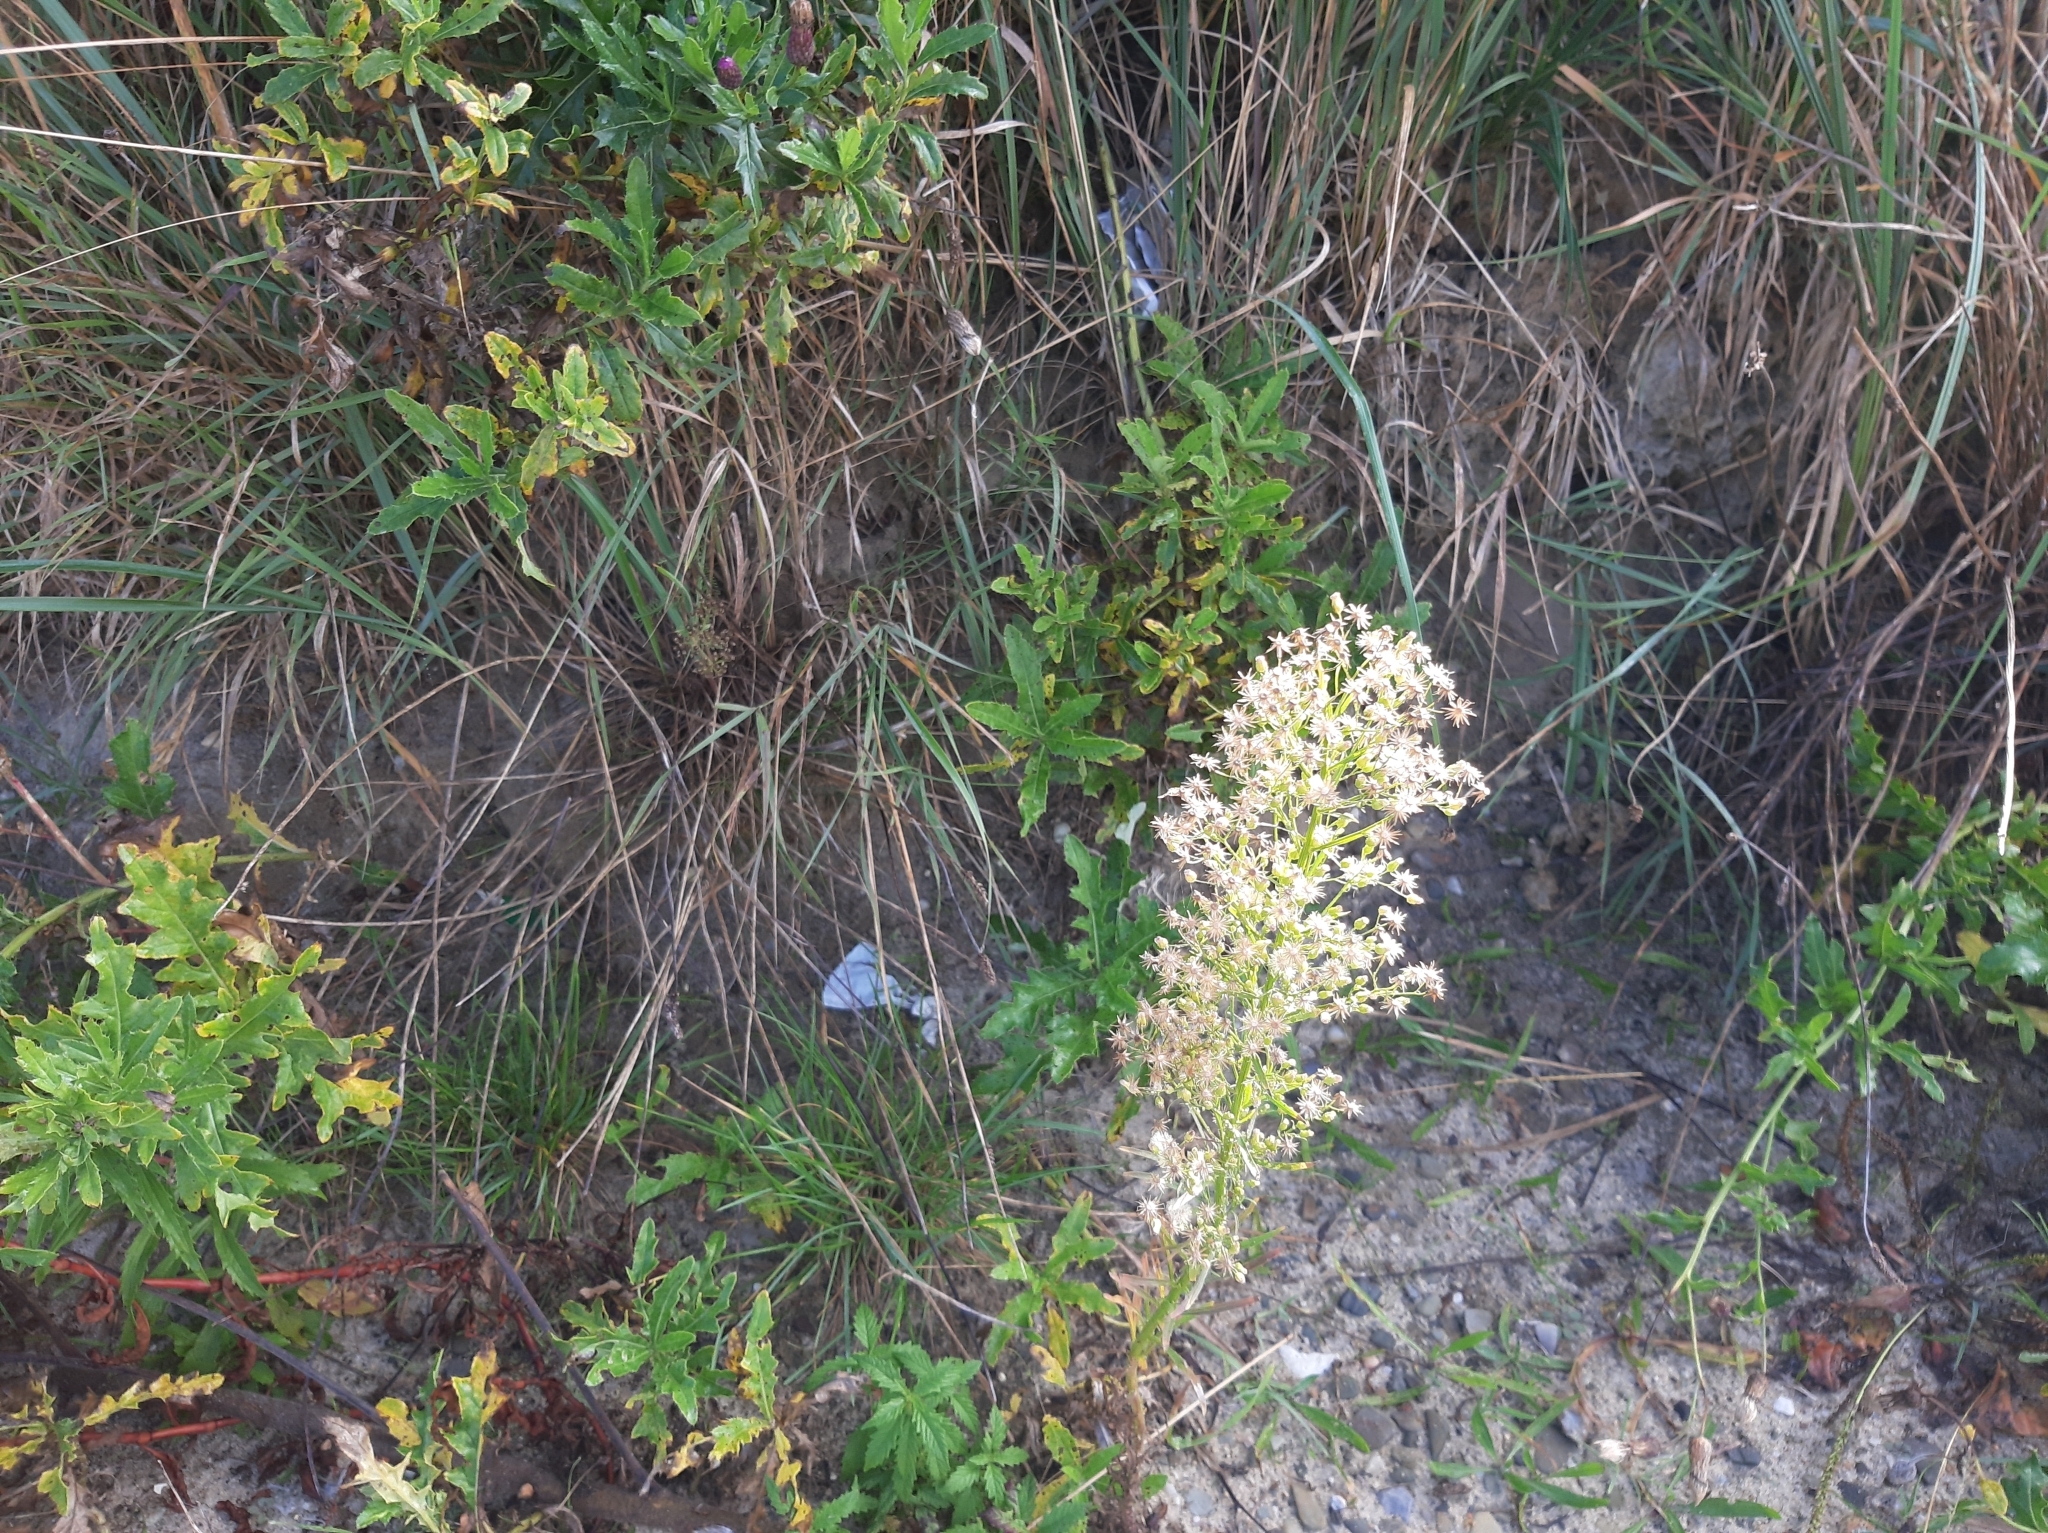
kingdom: Plantae
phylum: Tracheophyta
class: Magnoliopsida
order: Asterales
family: Asteraceae
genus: Erigeron
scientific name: Erigeron canadensis
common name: Canadian fleabane
